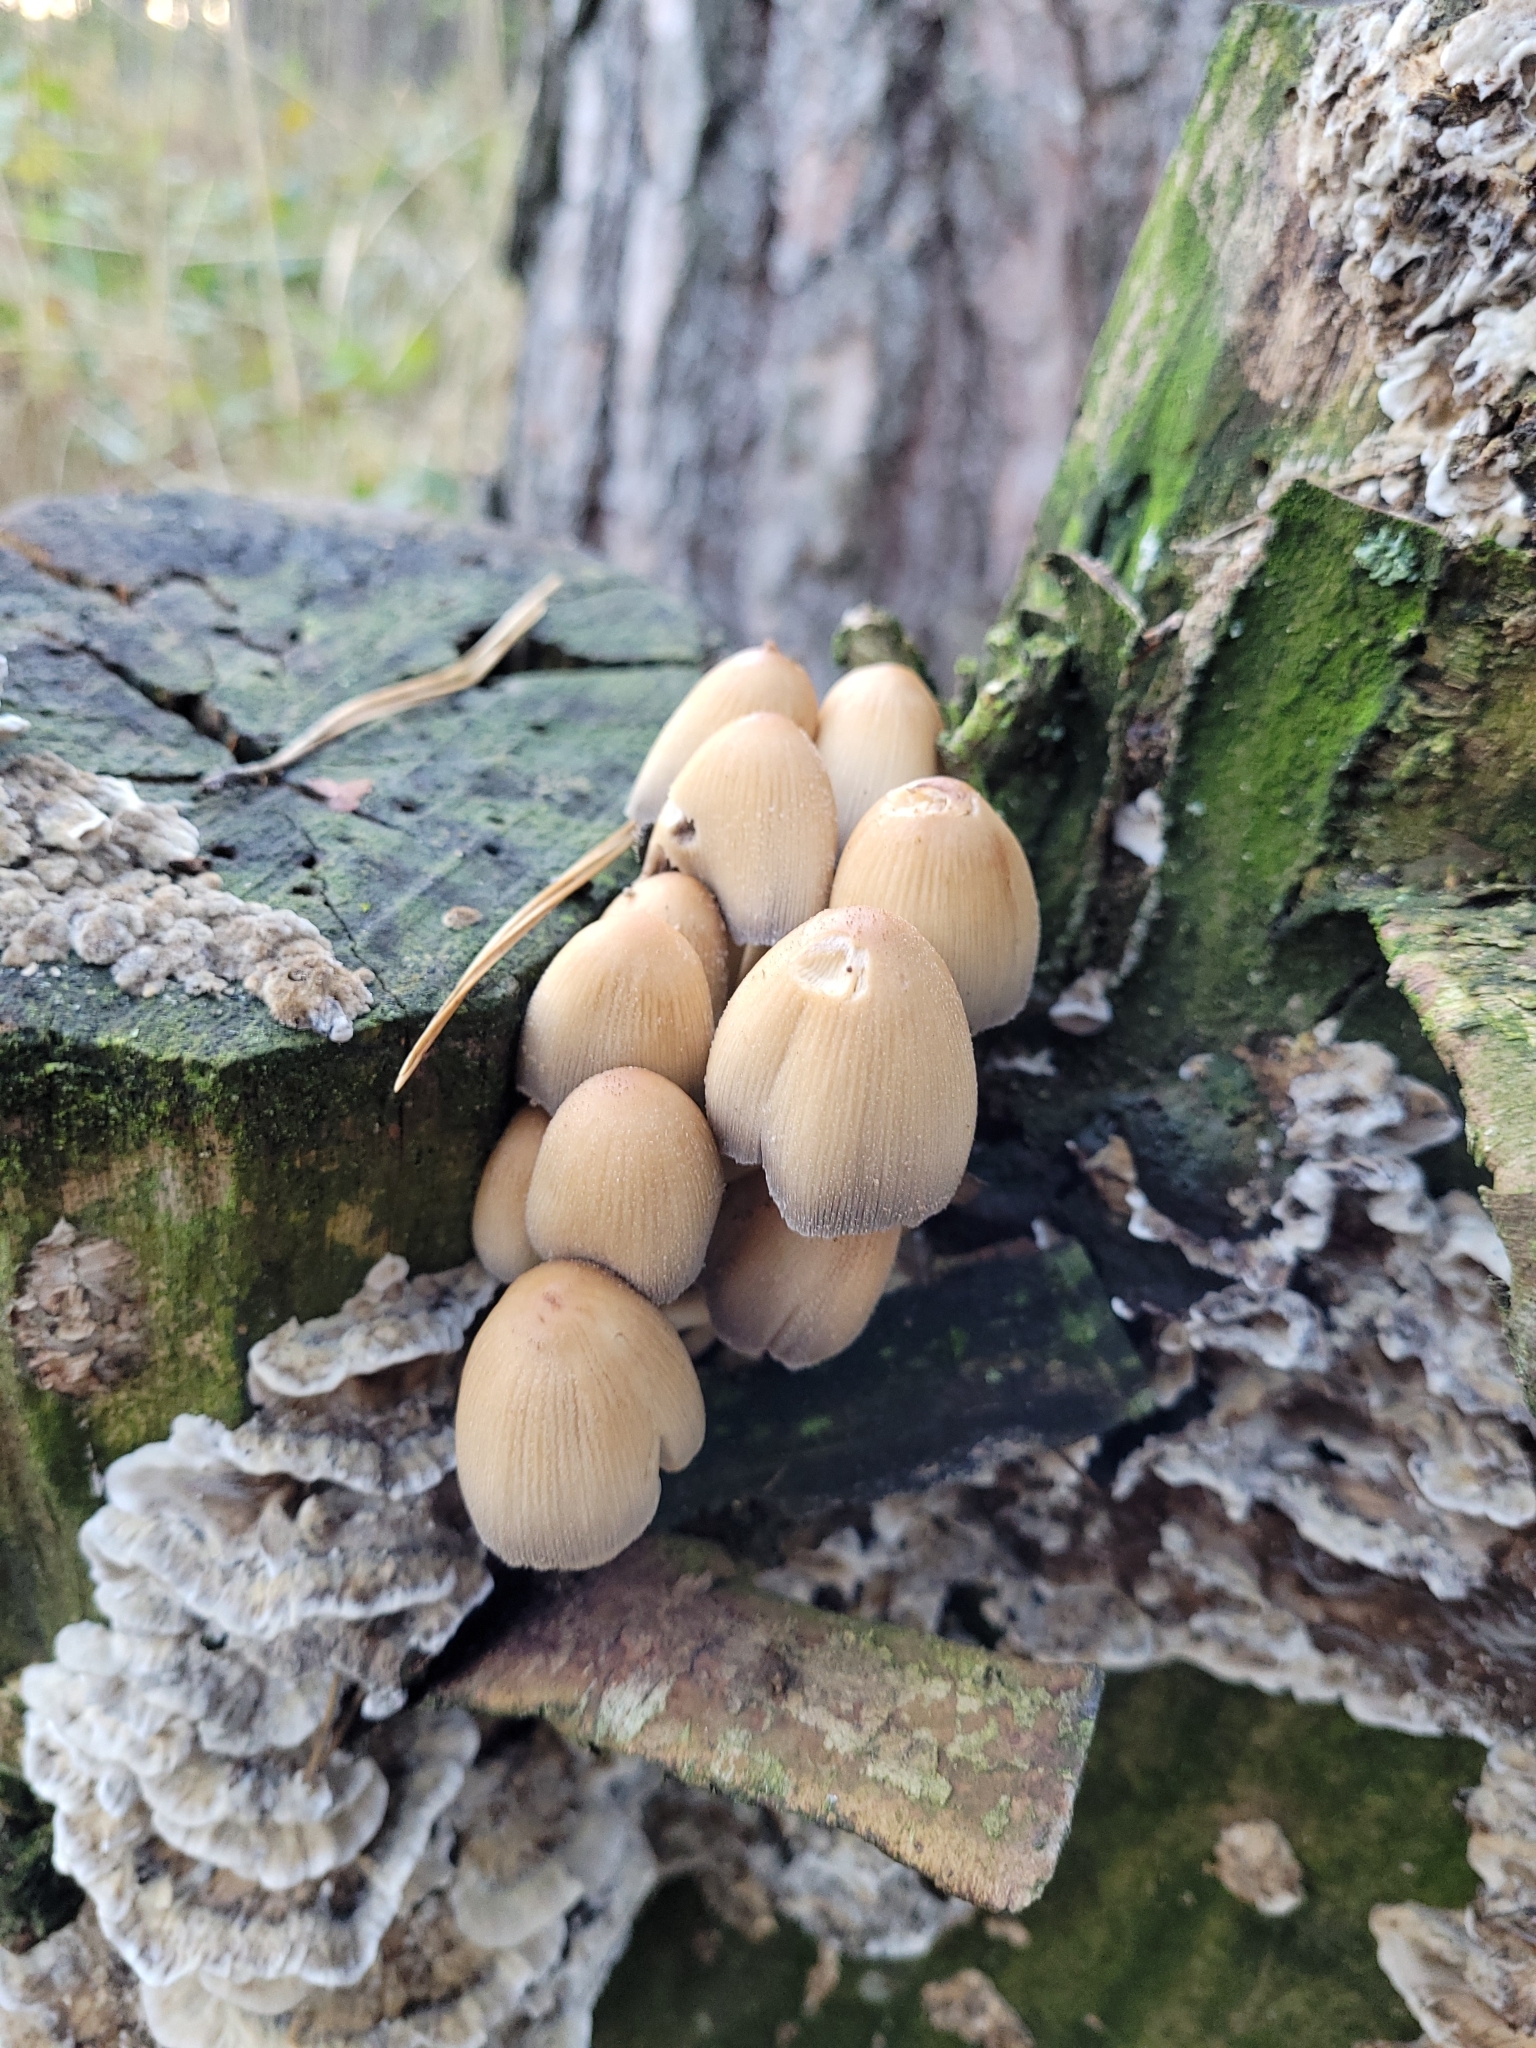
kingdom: Fungi
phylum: Basidiomycota
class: Agaricomycetes
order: Agaricales
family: Psathyrellaceae
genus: Coprinellus
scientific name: Coprinellus micaceus
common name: Glistening ink-cap
